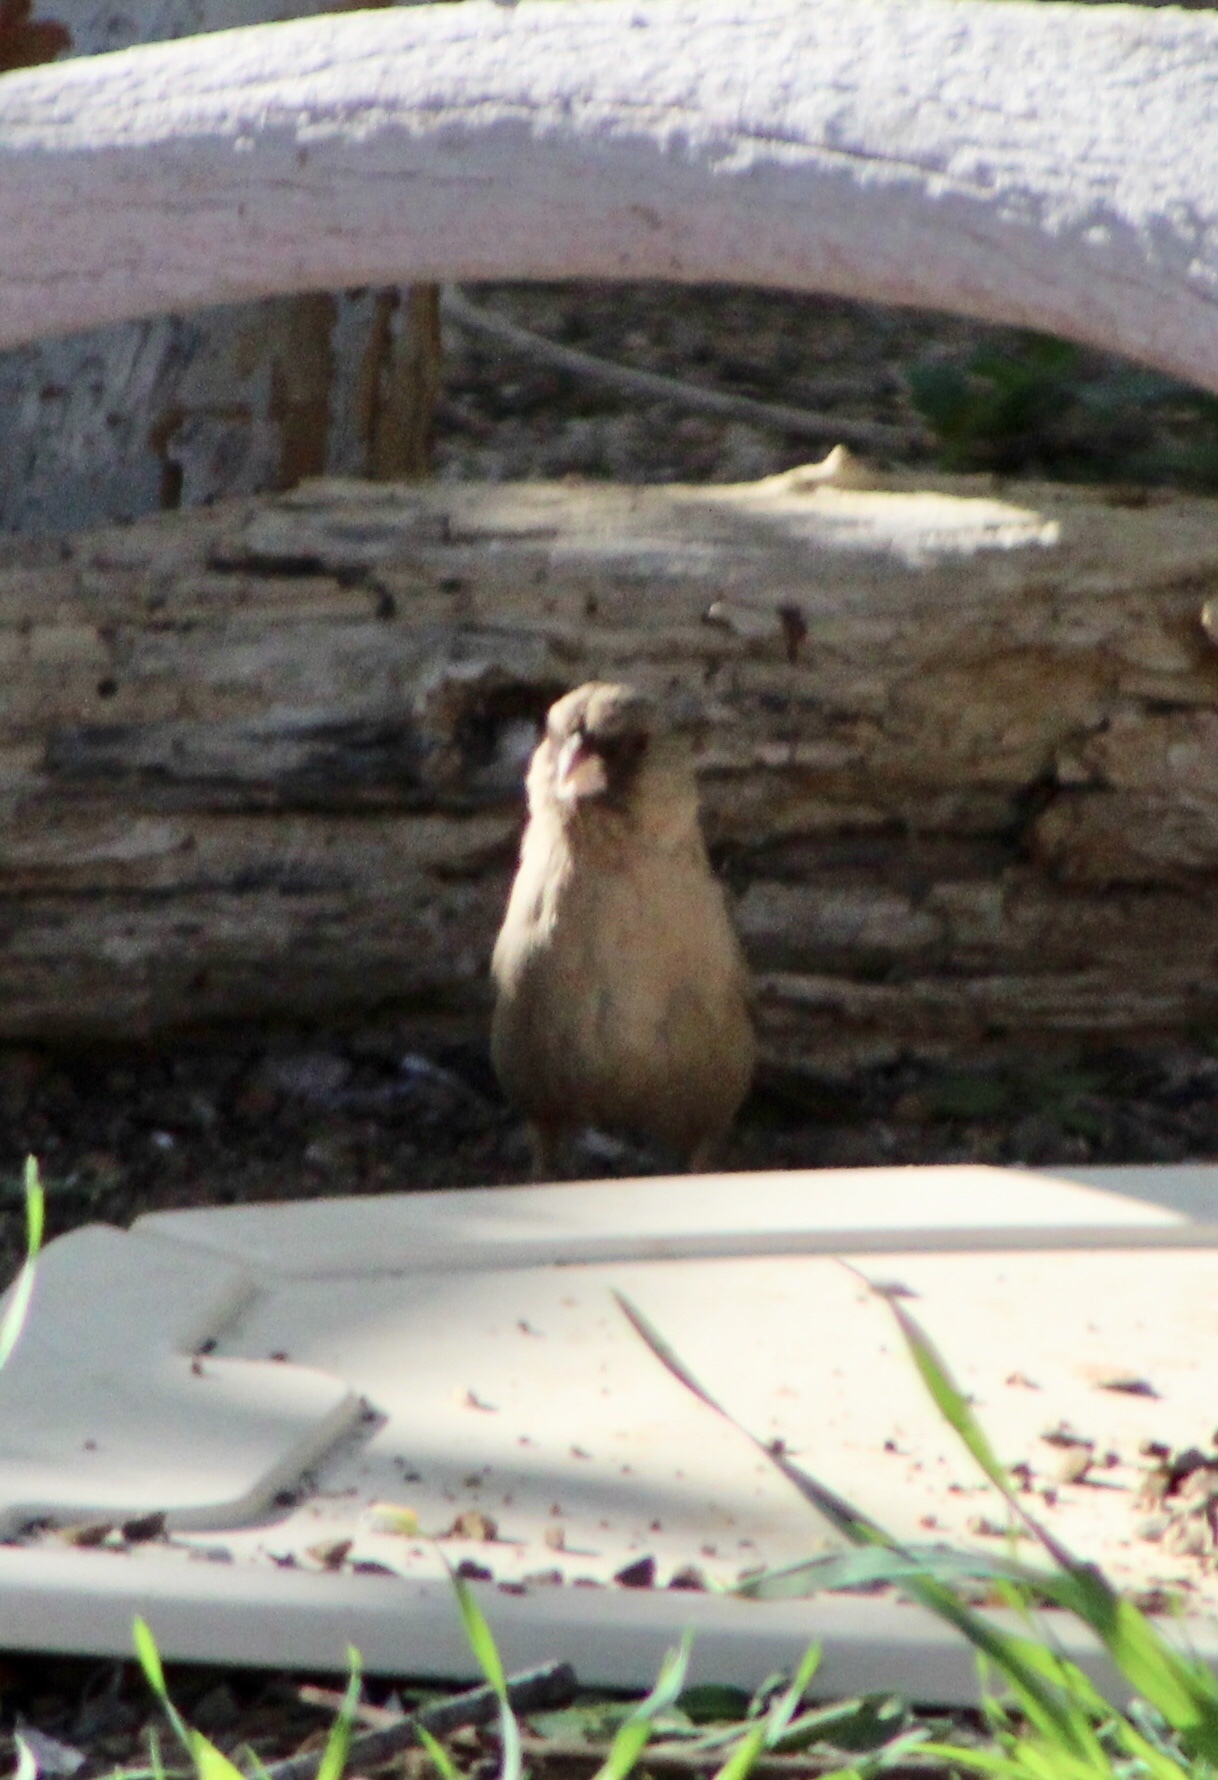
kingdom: Animalia
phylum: Chordata
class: Aves
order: Passeriformes
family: Passerellidae
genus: Melozone
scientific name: Melozone aberti
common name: Abert's towhee
